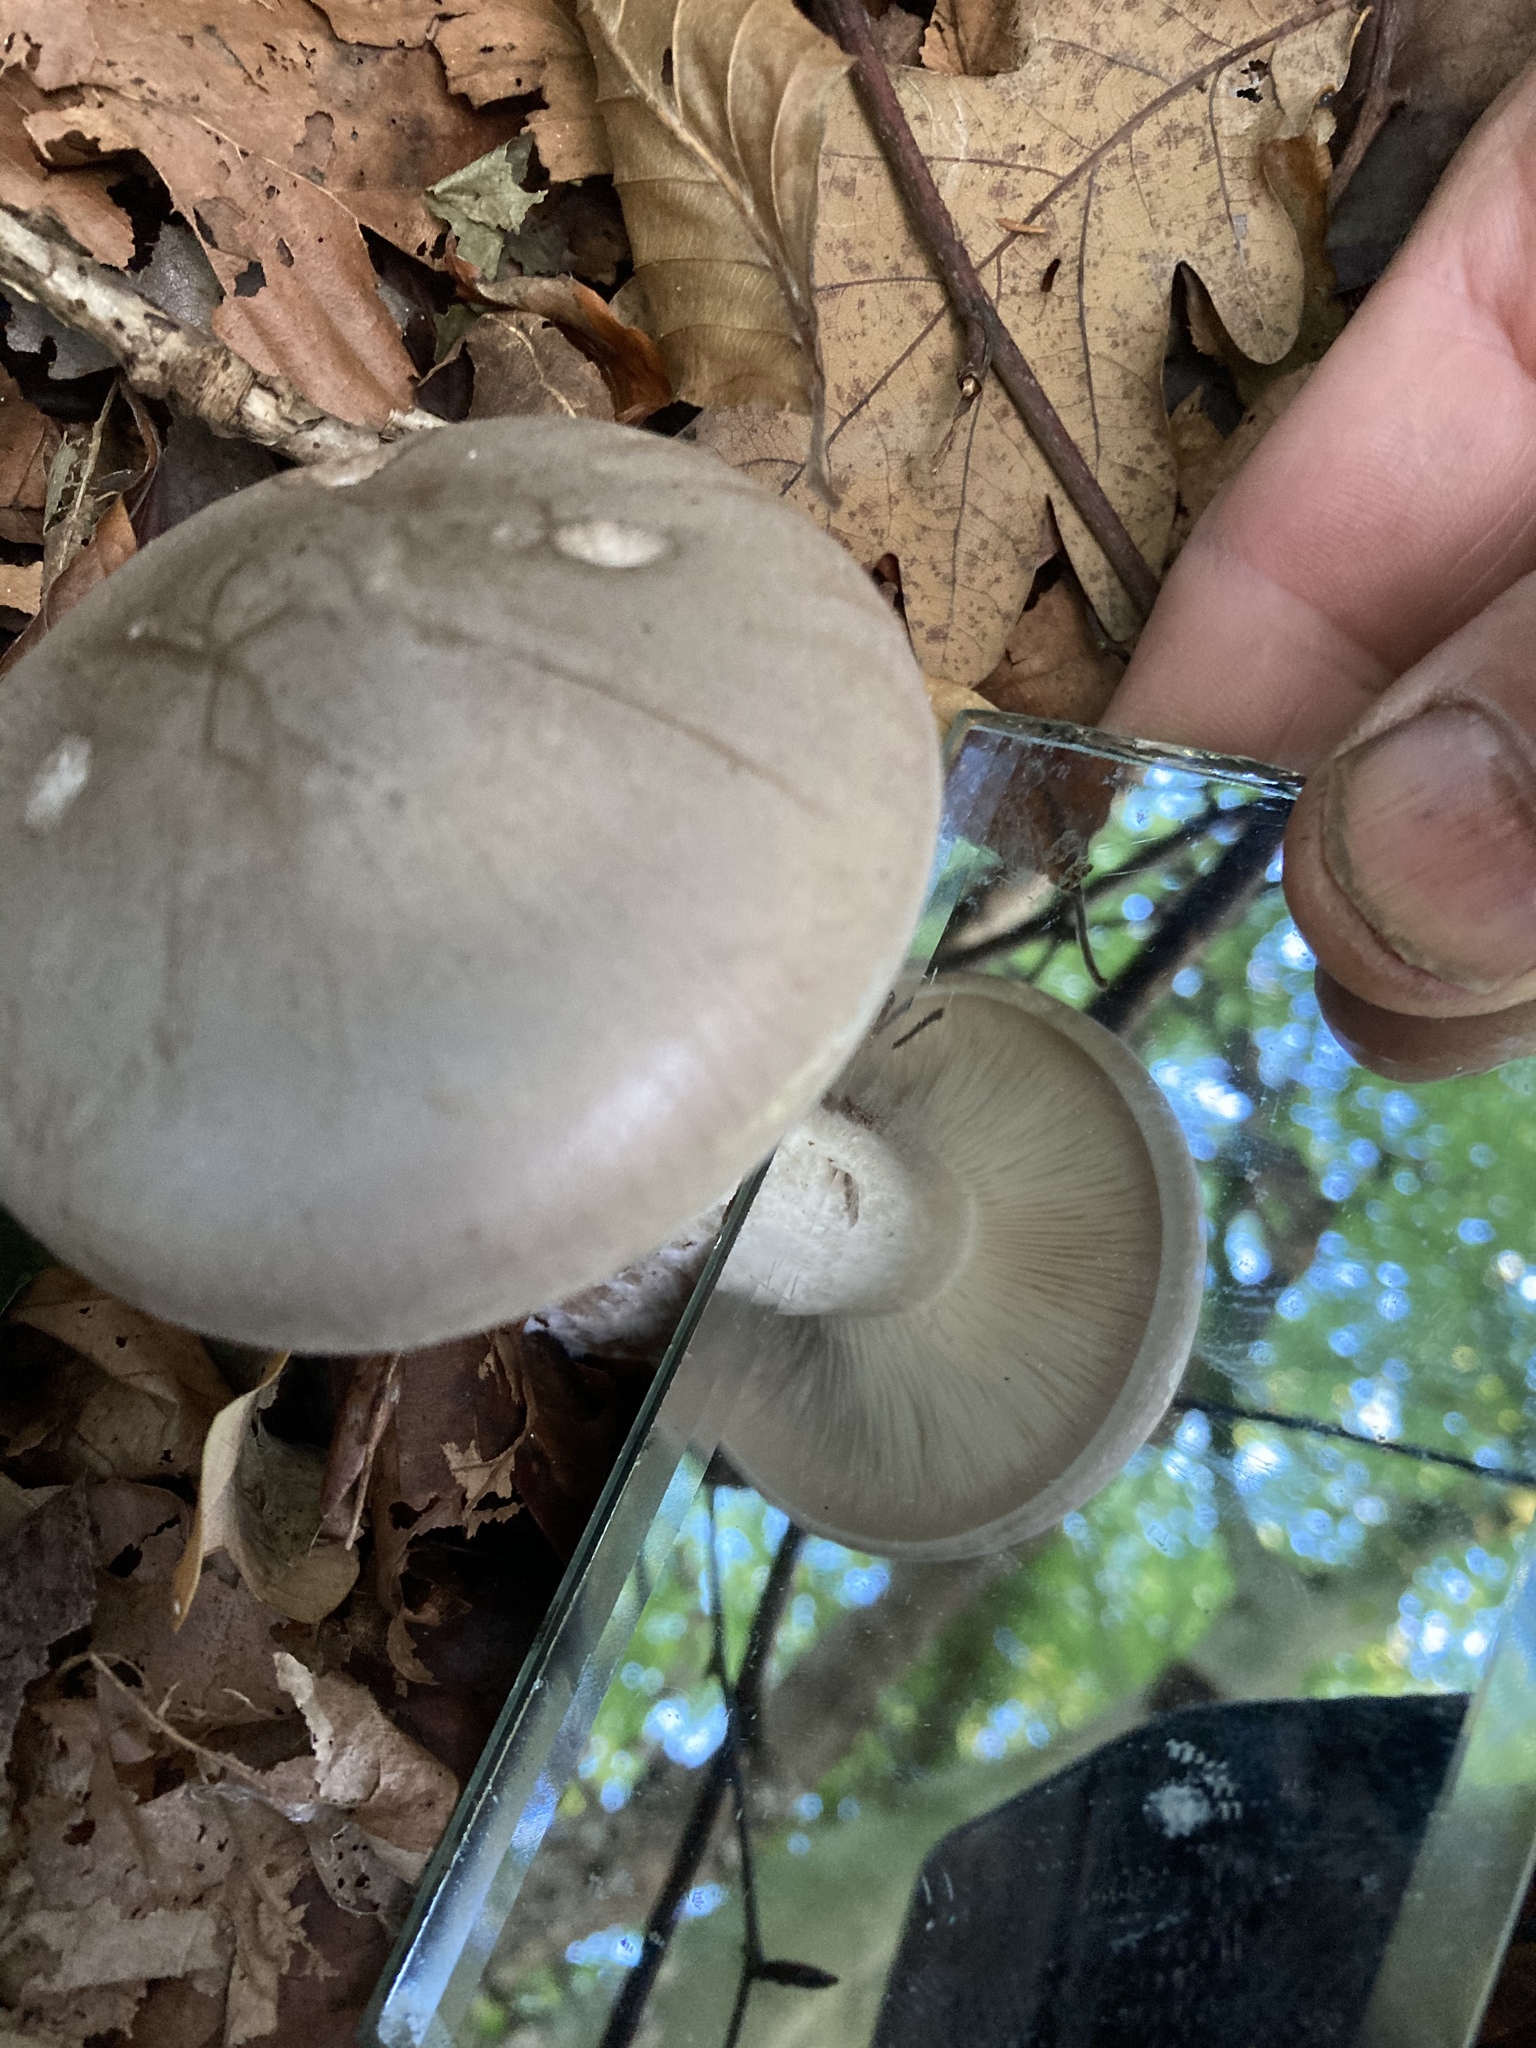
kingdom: Fungi
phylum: Basidiomycota
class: Agaricomycetes
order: Agaricales
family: Tricholomataceae
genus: Clitocybe
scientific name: Clitocybe nebularis
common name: Clouded agaric
